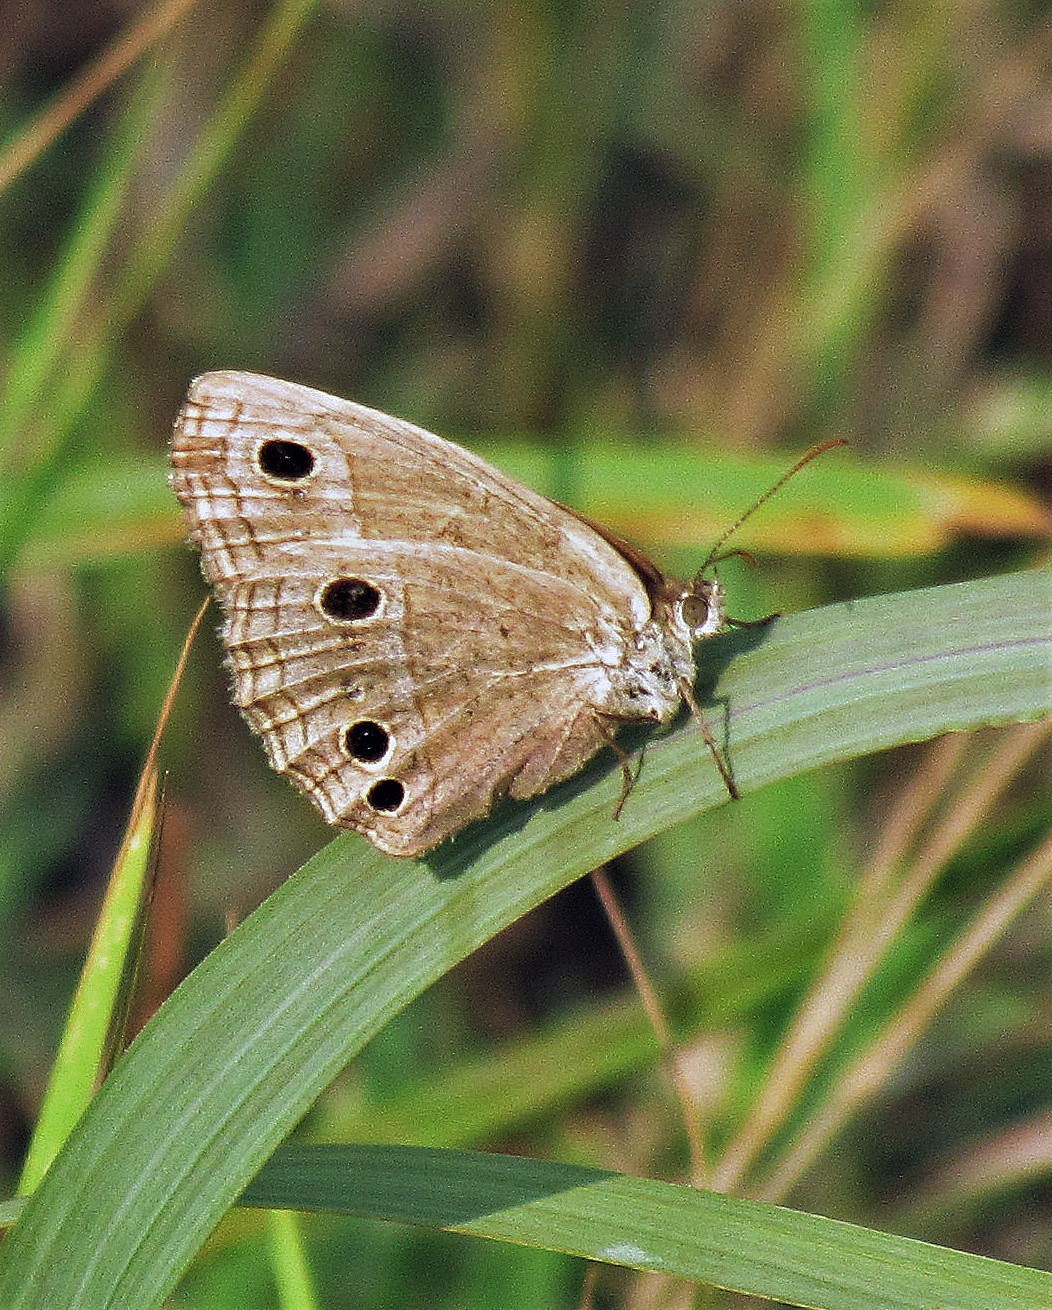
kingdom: Animalia
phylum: Arthropoda
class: Insecta
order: Lepidoptera
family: Nymphalidae
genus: Stegosatyrus
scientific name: Stegosatyrus periphas
